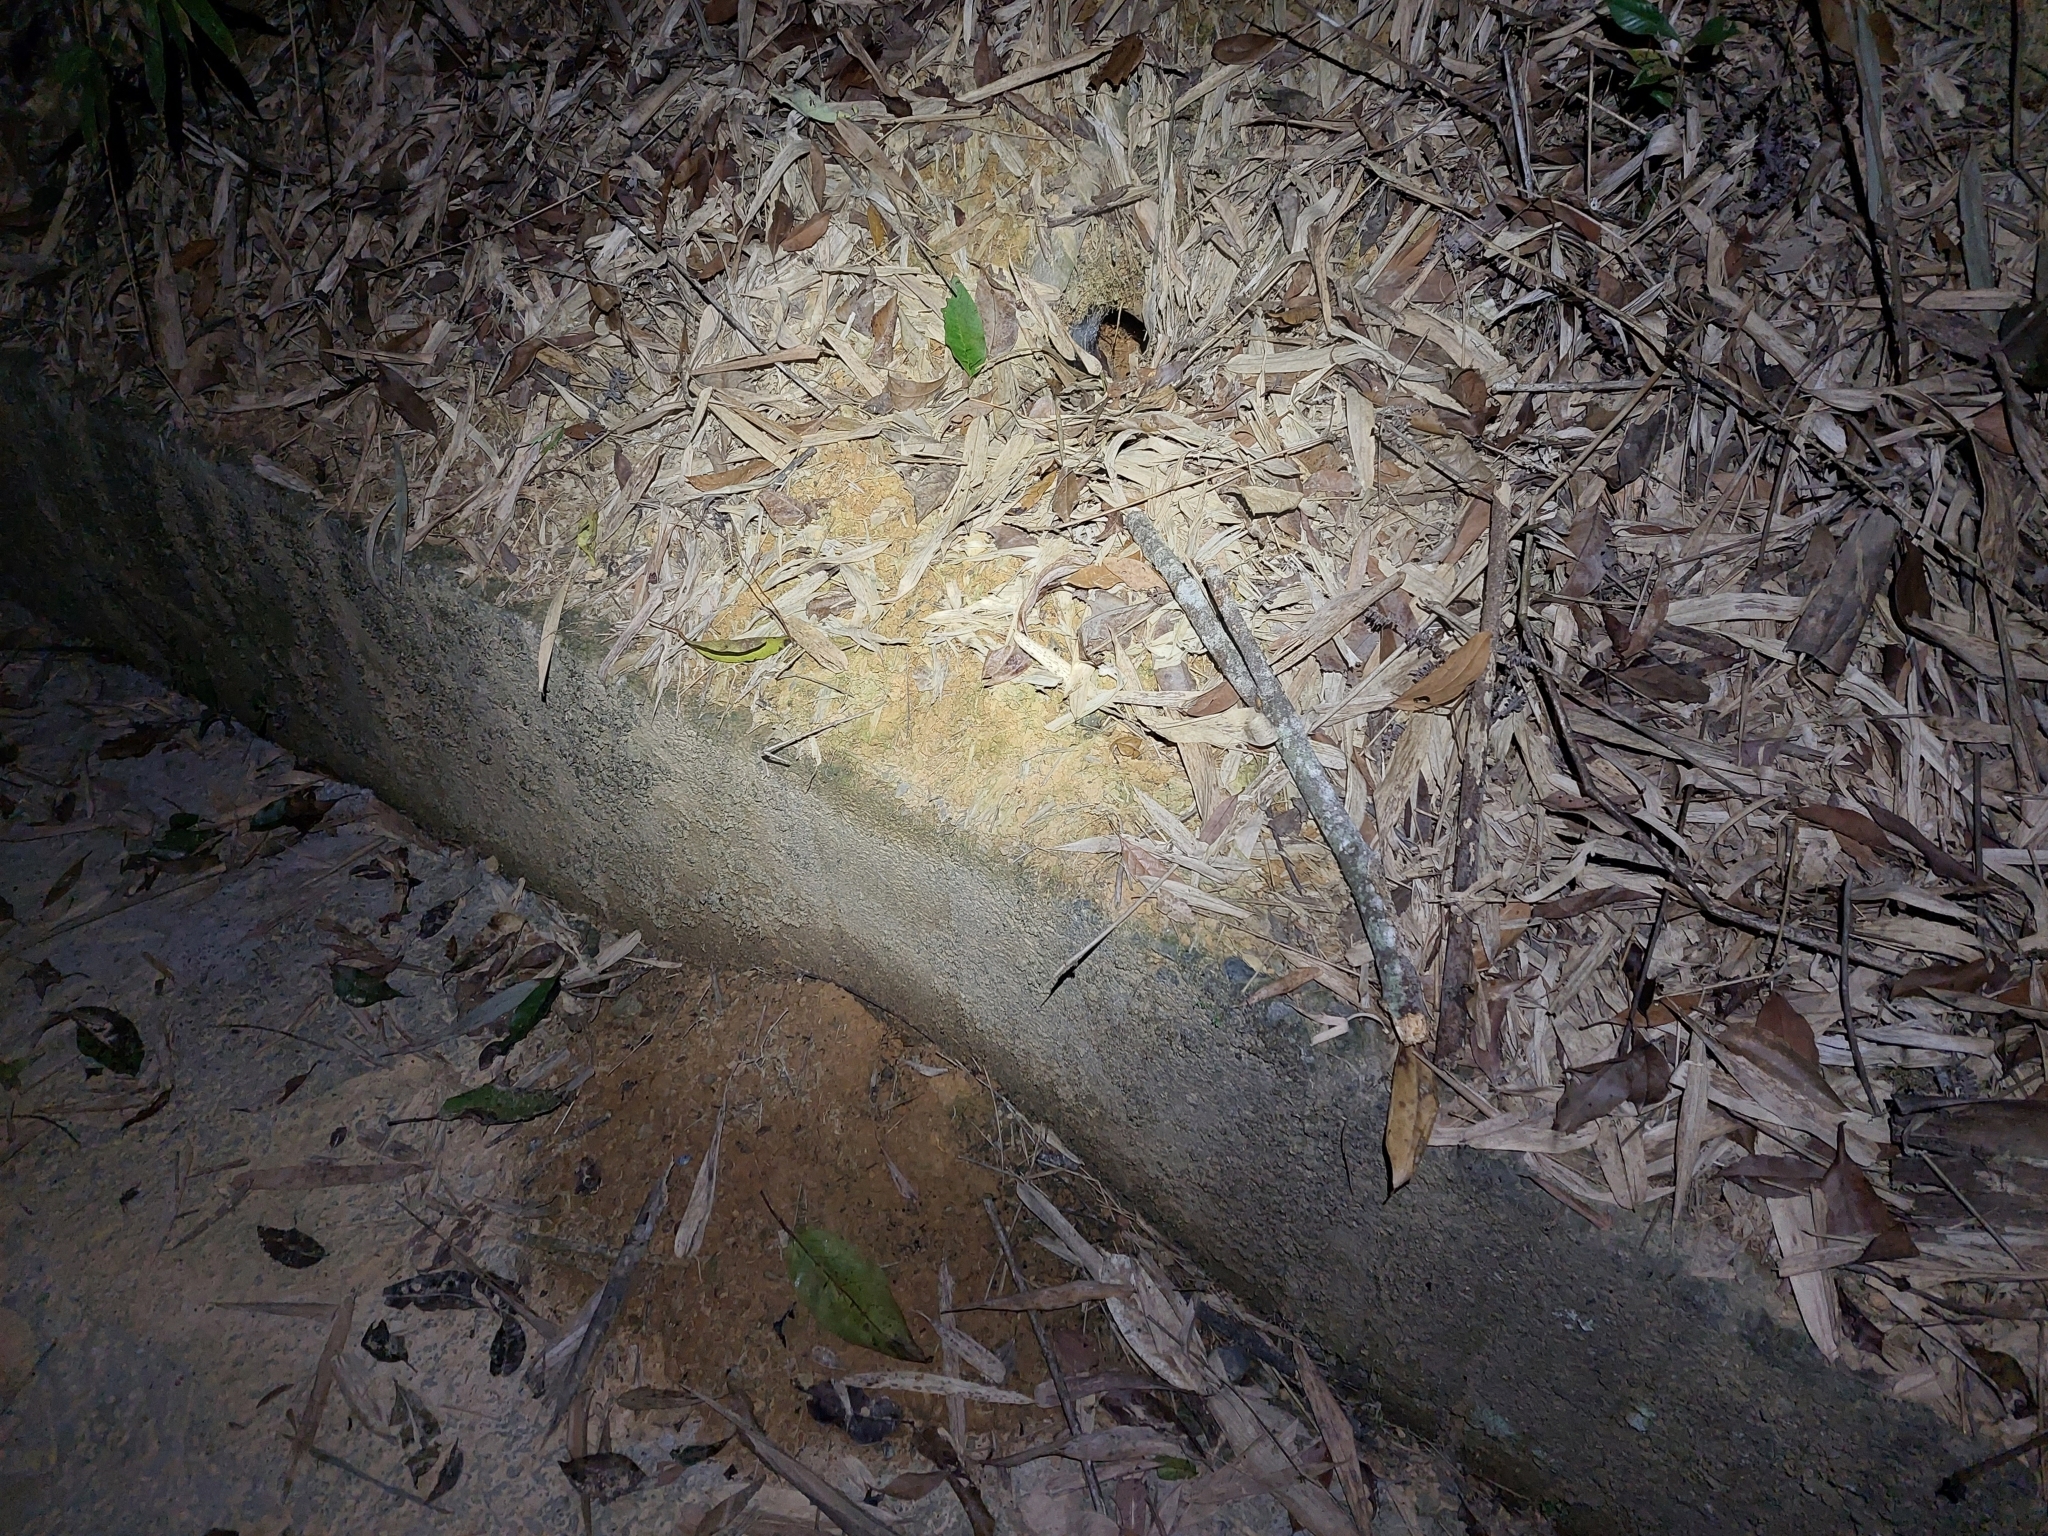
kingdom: Animalia
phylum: Chordata
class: Mammalia
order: Pholidota
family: Manidae
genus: Manis
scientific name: Manis pentadactyla
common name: Chinese pangolin
